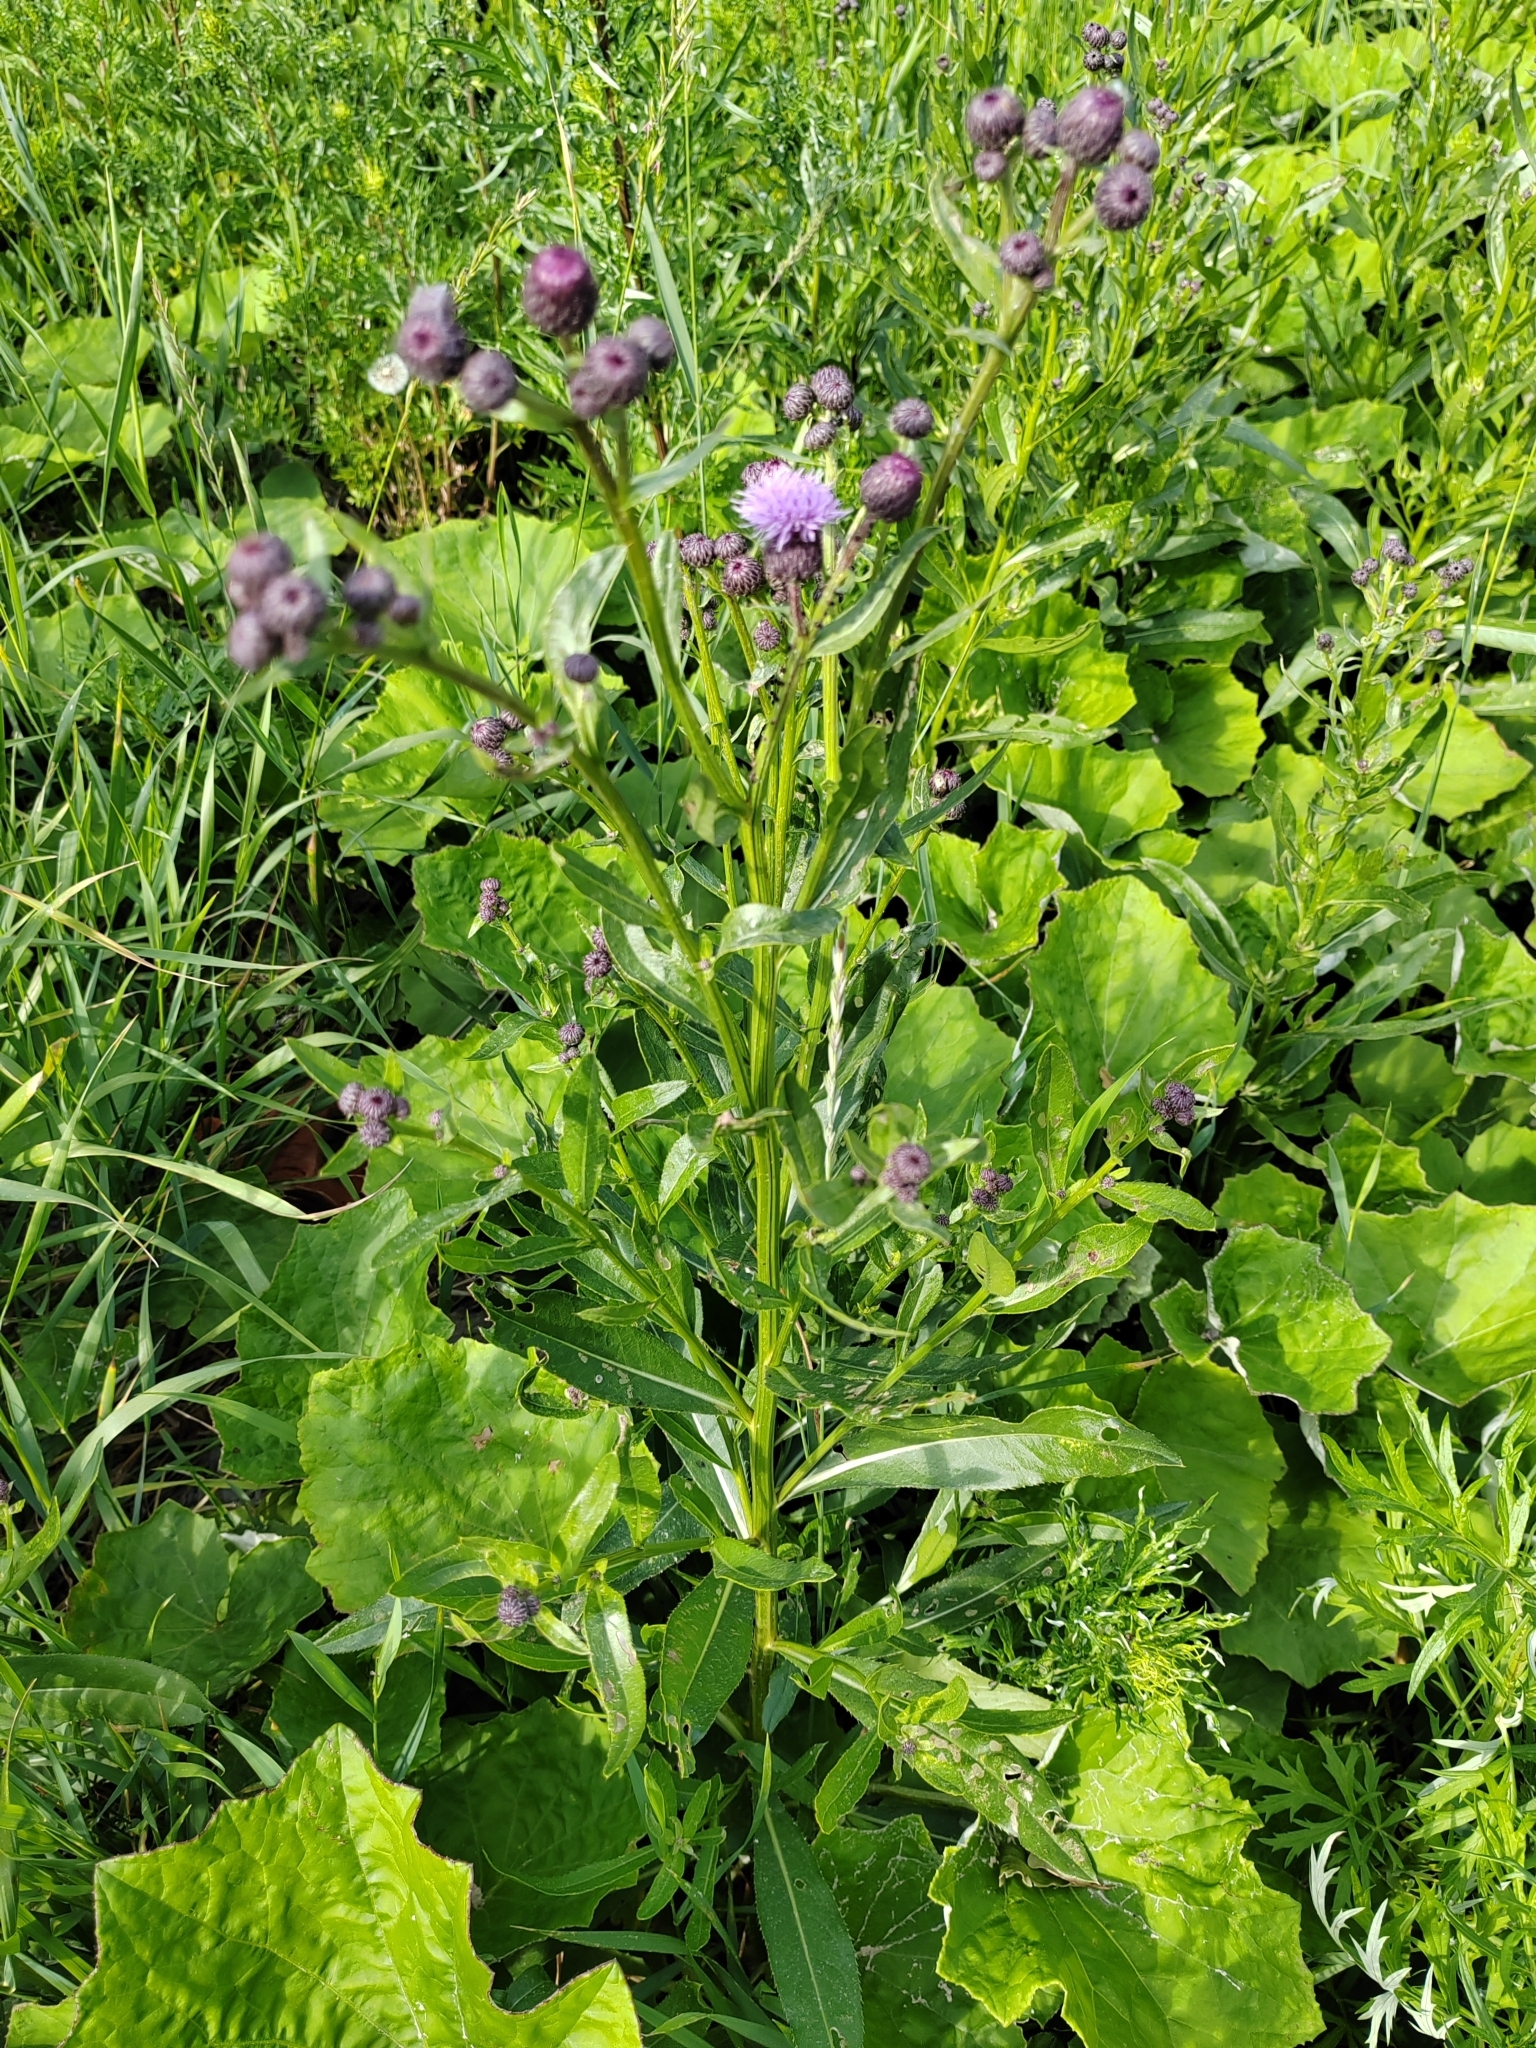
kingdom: Plantae
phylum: Tracheophyta
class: Magnoliopsida
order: Asterales
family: Asteraceae
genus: Cirsium
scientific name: Cirsium arvense
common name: Creeping thistle
